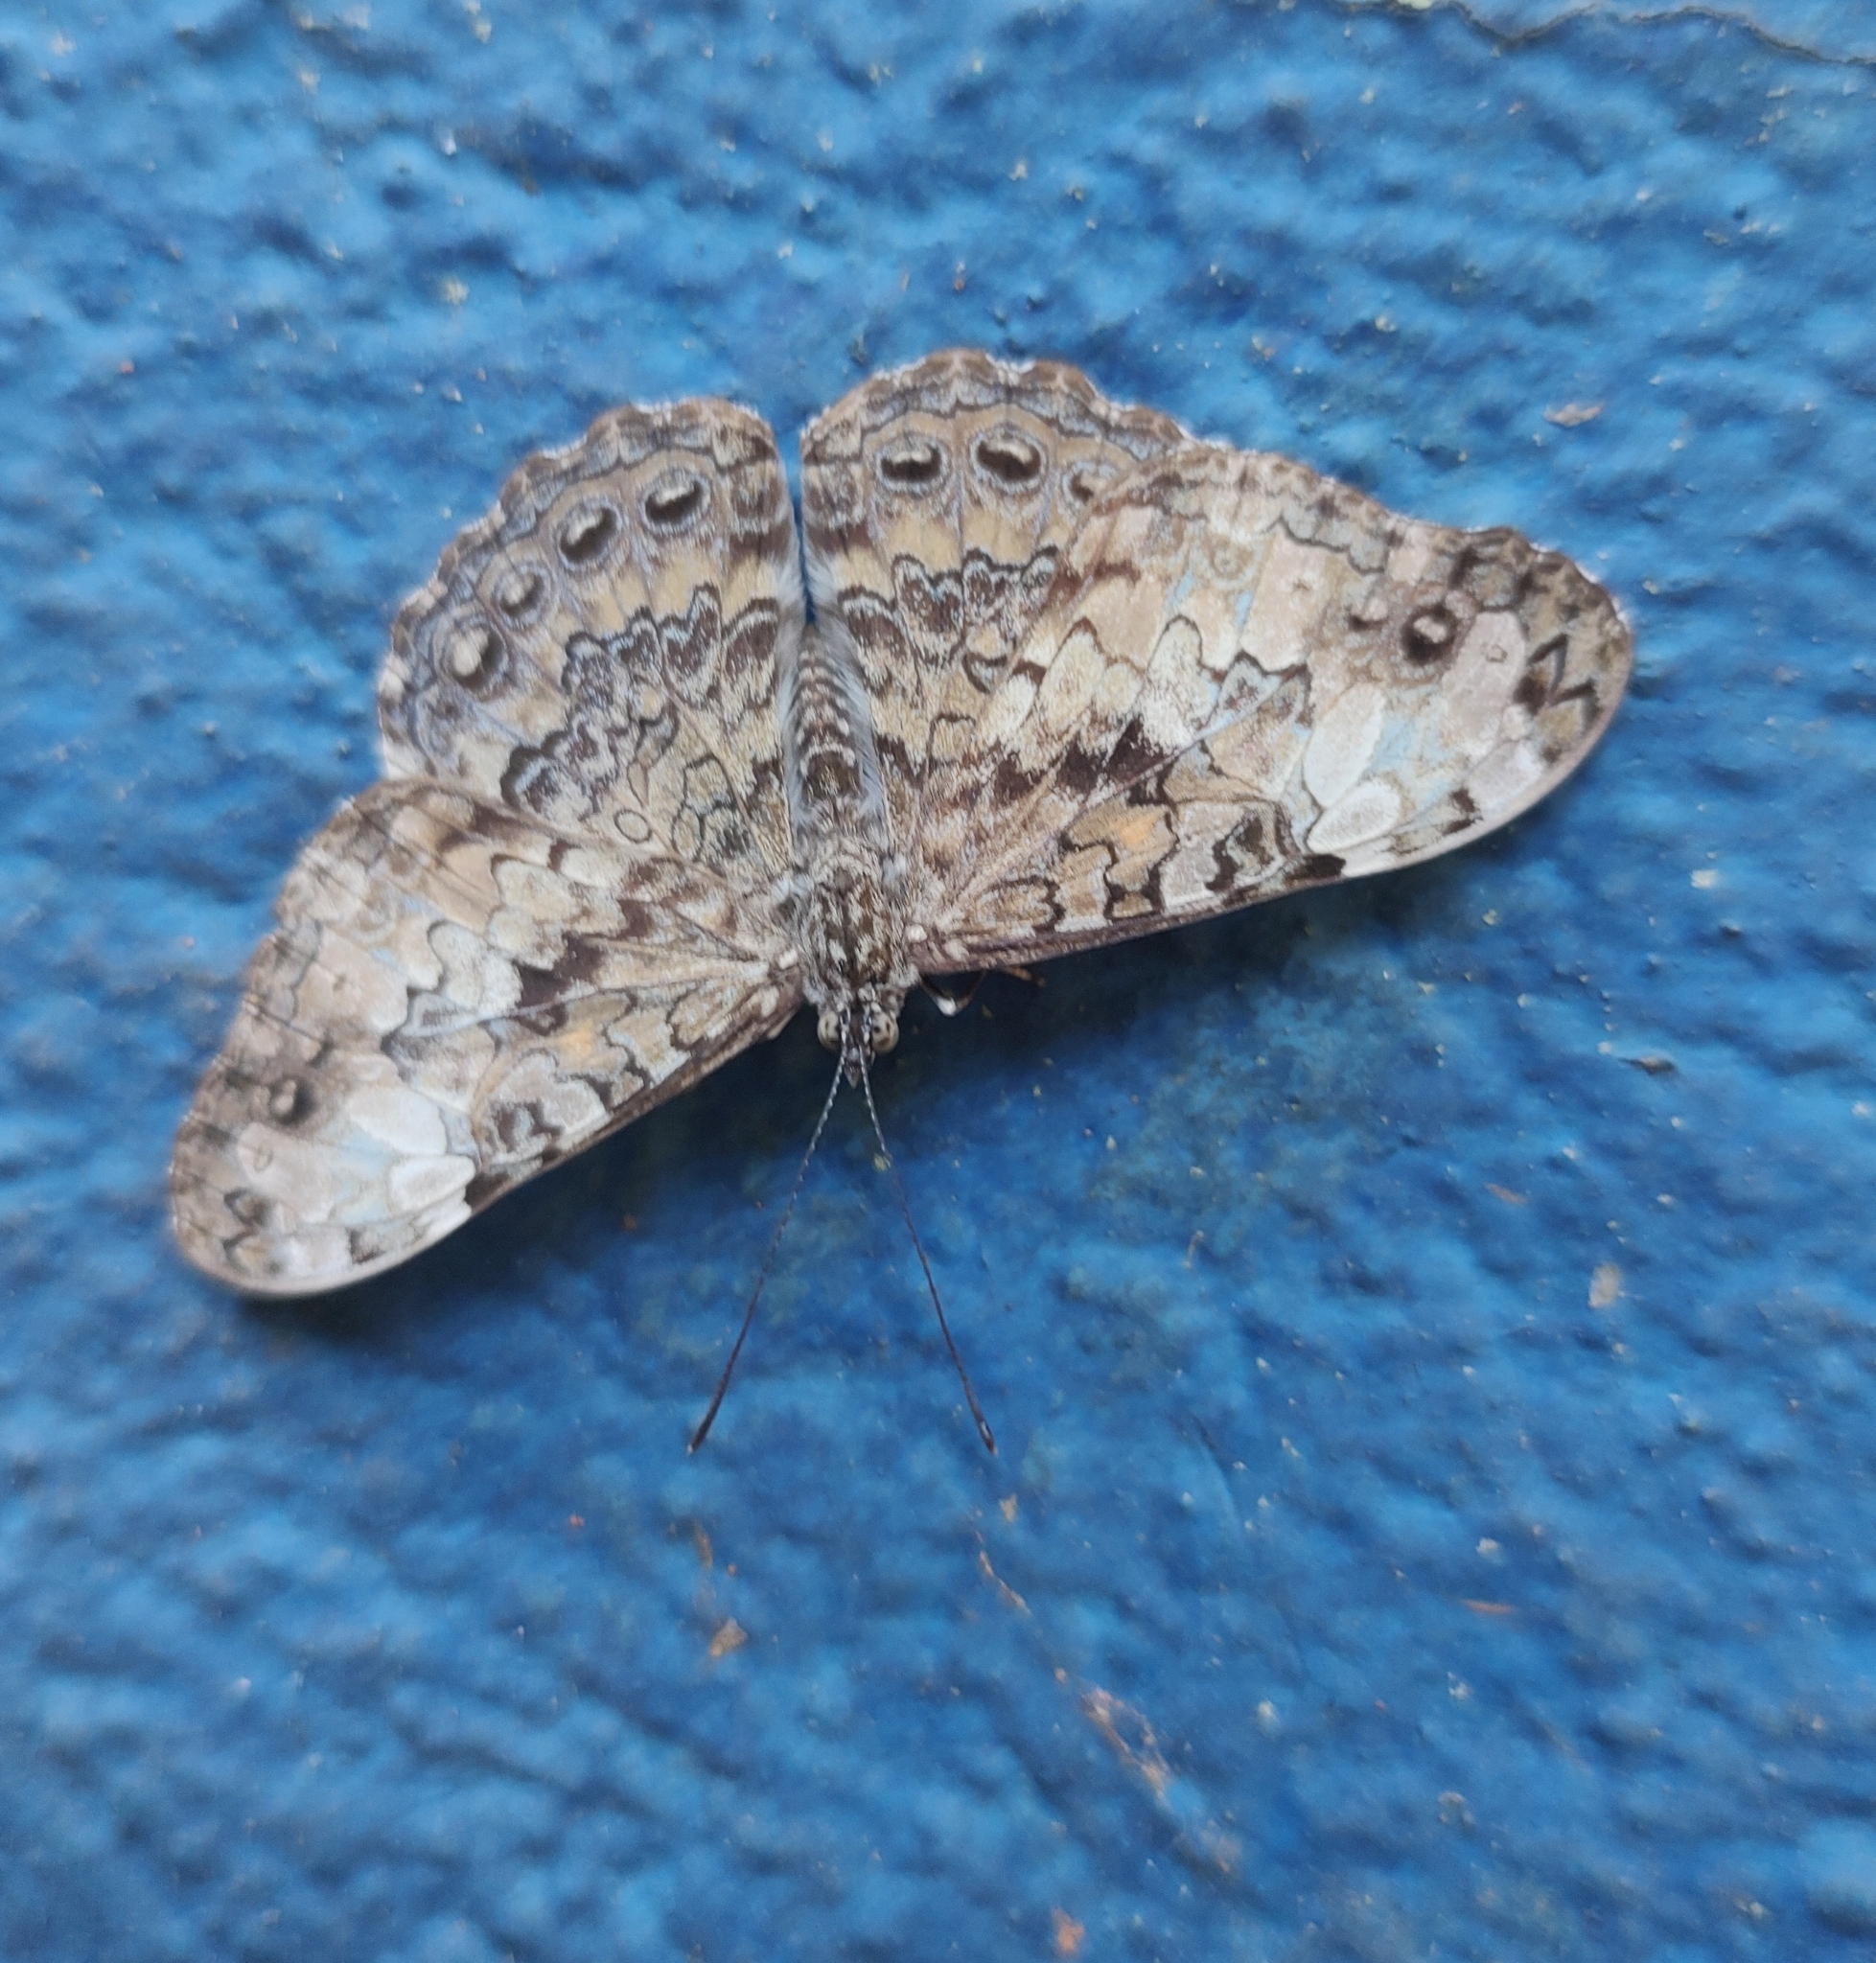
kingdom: Animalia
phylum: Arthropoda
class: Insecta
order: Lepidoptera
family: Nymphalidae
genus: Hamadryas
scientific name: Hamadryas epinome
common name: Epinome cracker
